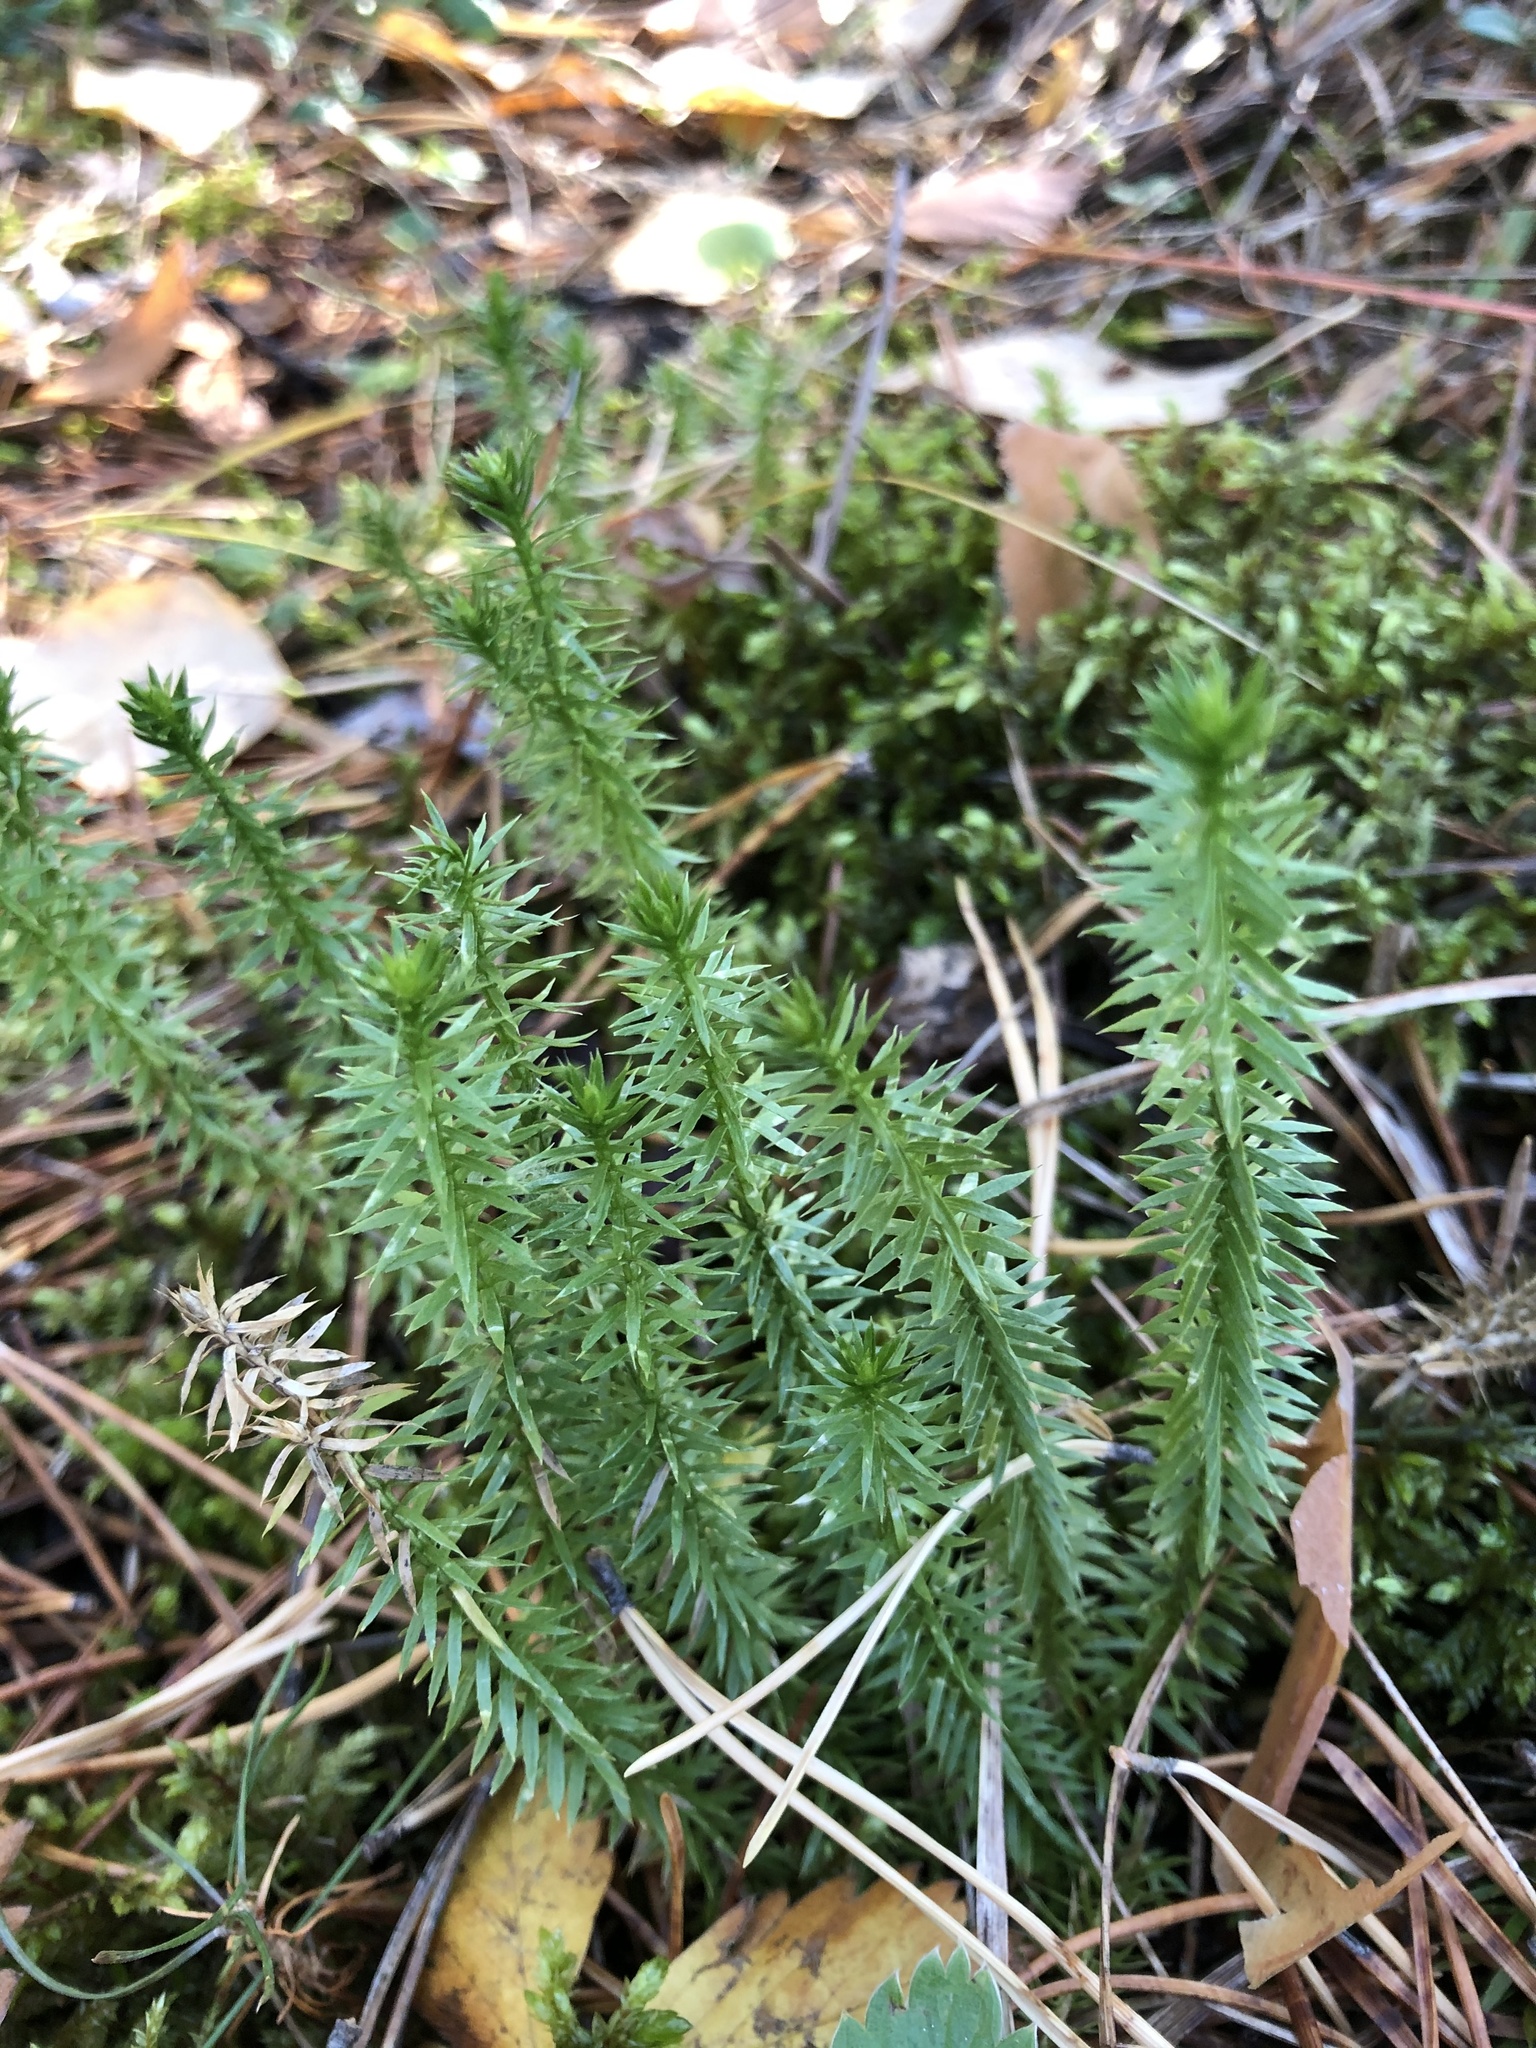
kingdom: Plantae
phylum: Tracheophyta
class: Lycopodiopsida
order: Lycopodiales
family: Lycopodiaceae
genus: Spinulum
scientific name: Spinulum annotinum
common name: Interrupted club-moss
